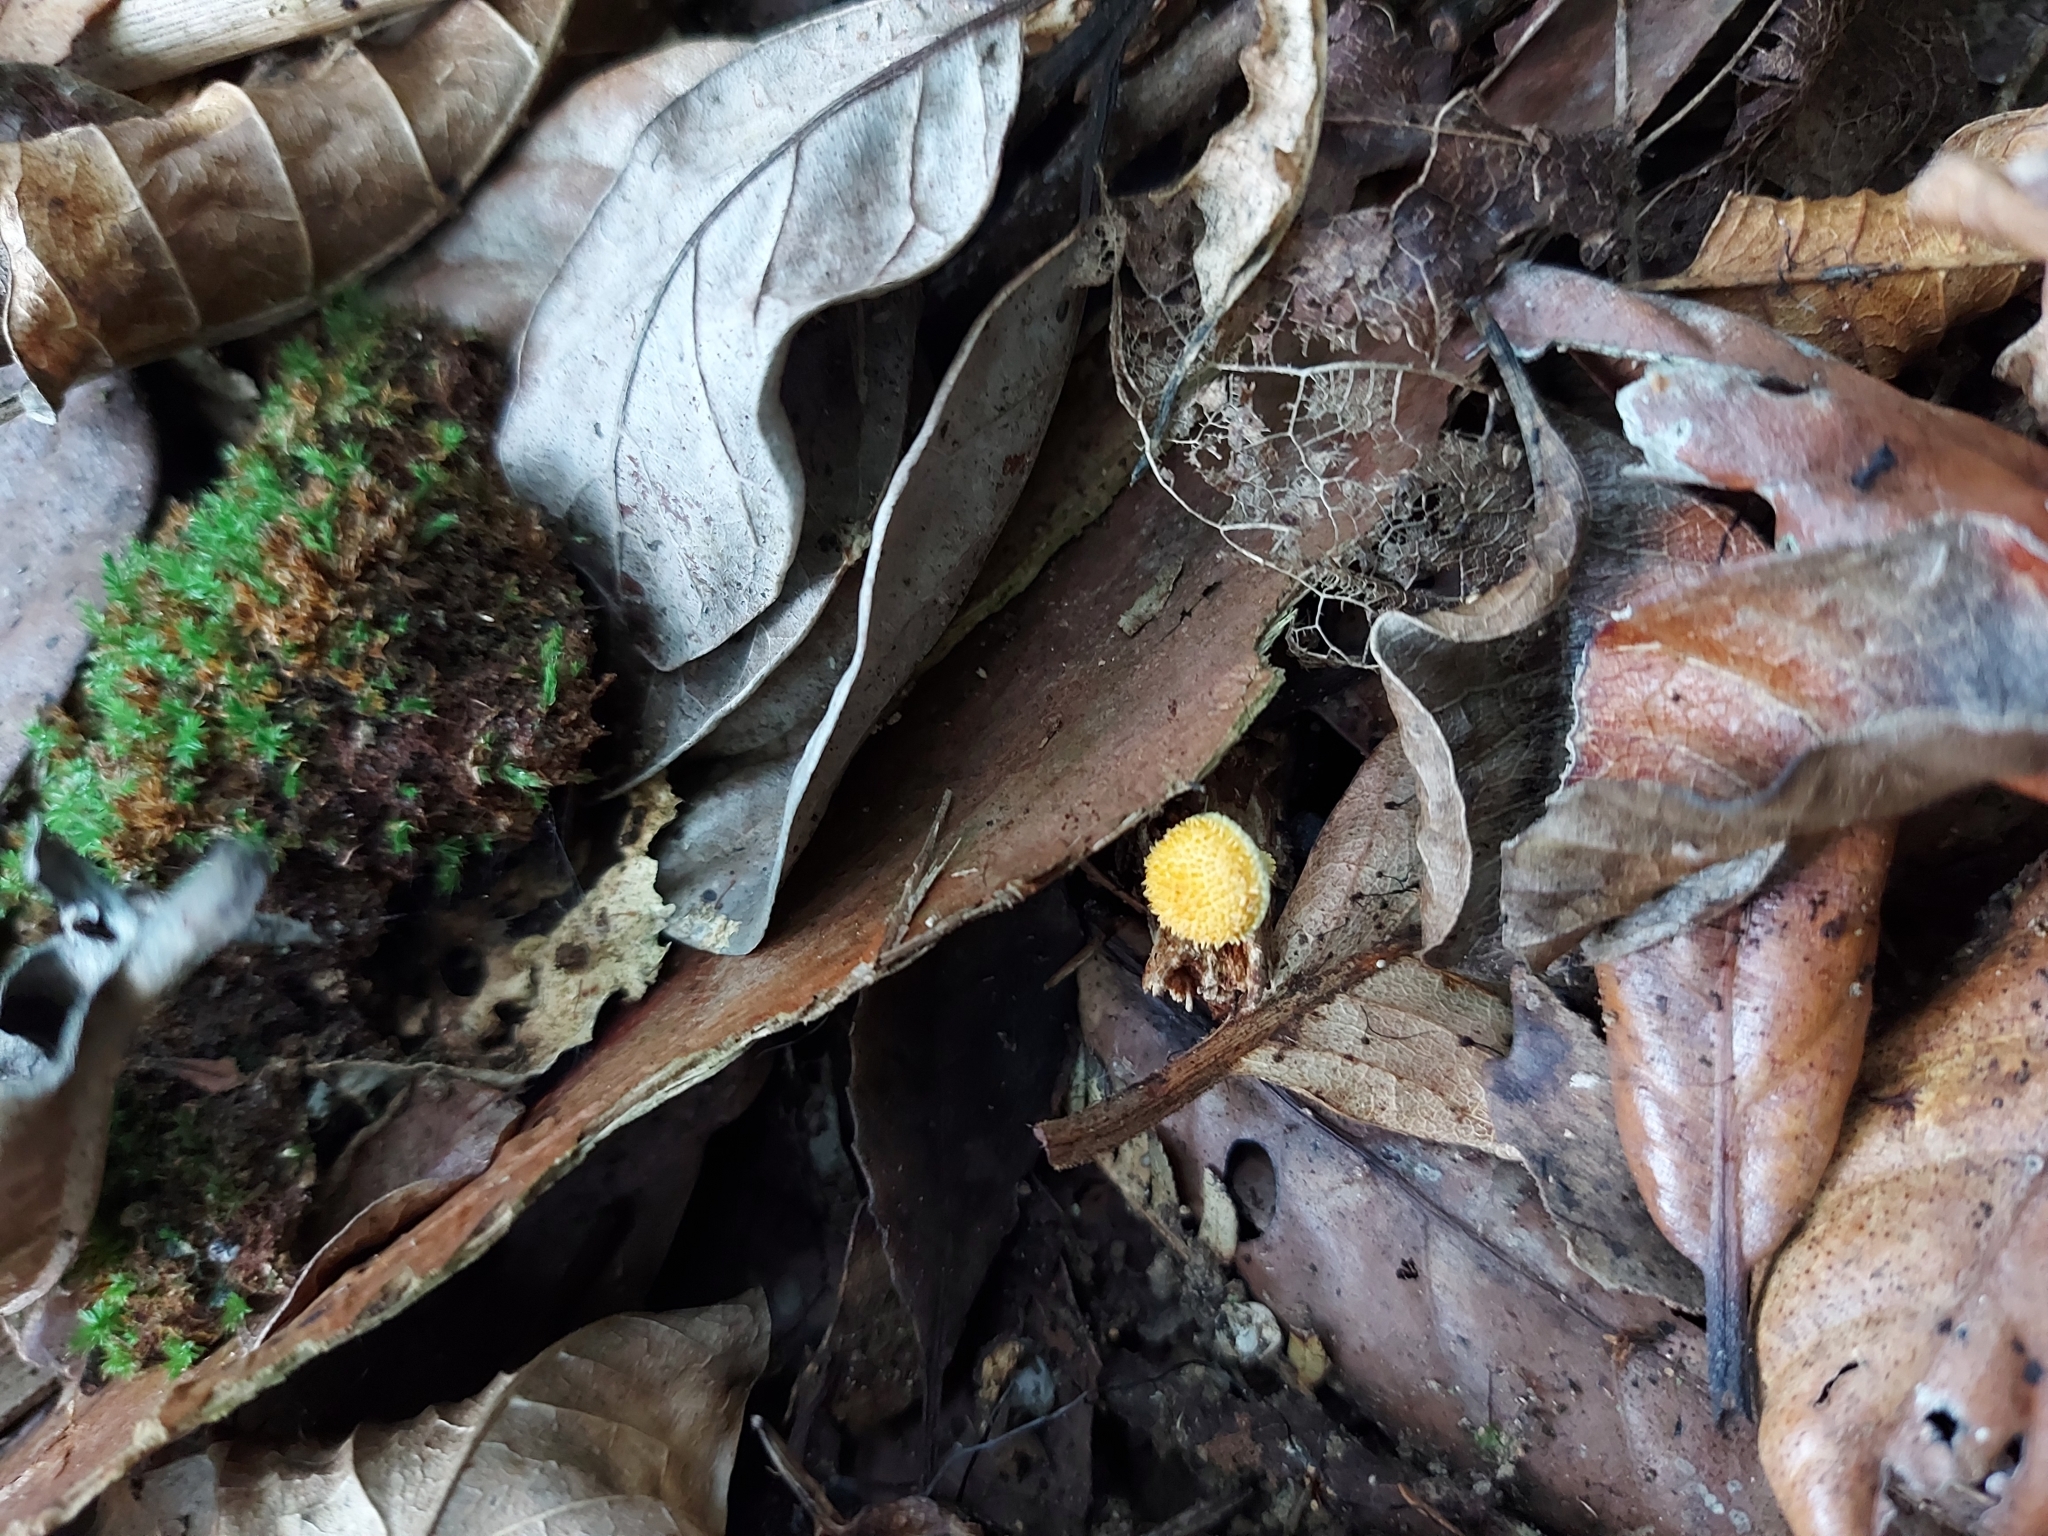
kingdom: Fungi
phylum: Basidiomycota
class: Agaricomycetes
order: Agaricales
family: Physalacriaceae
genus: Cyptotrama
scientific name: Cyptotrama asprata
